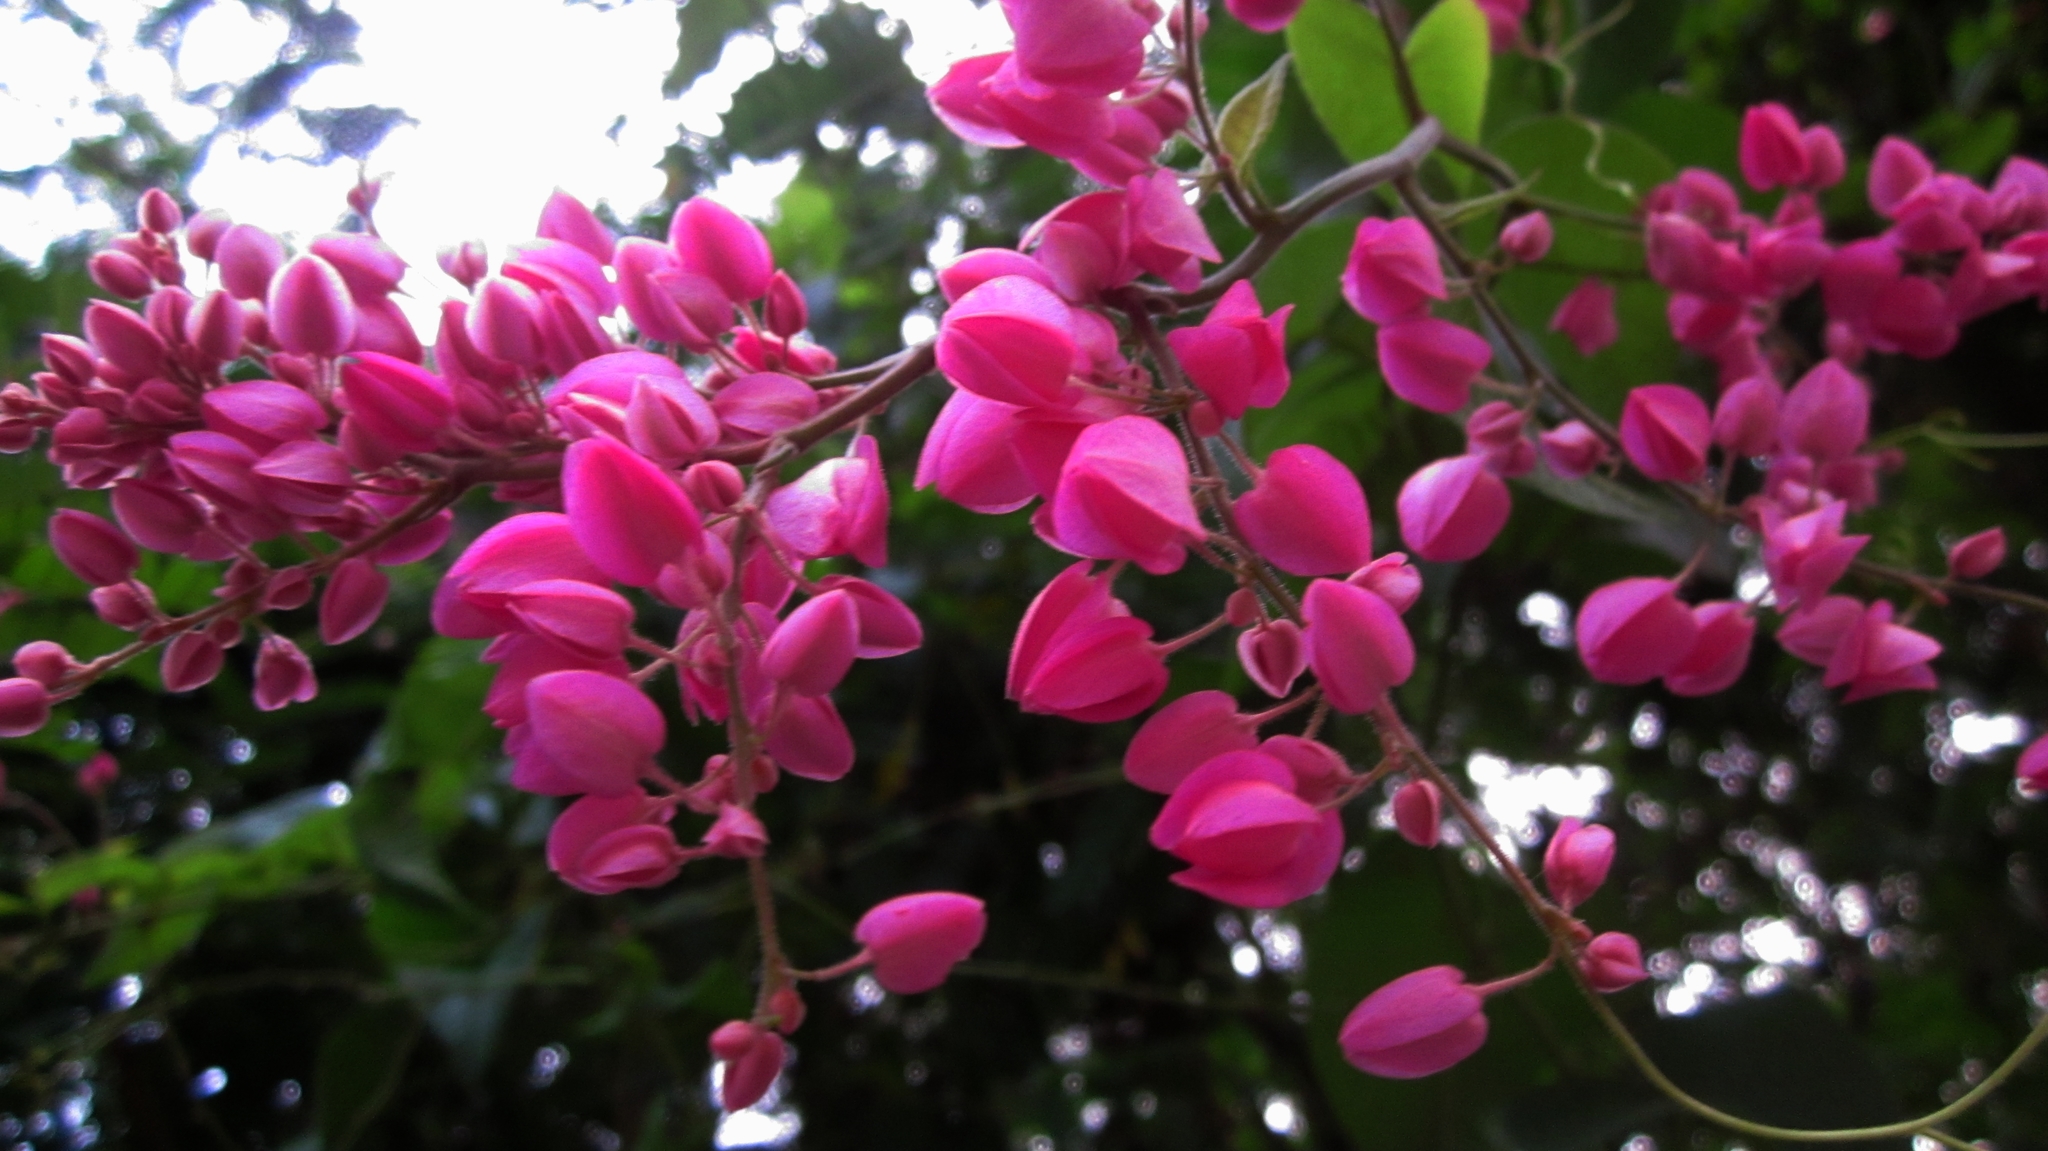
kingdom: Plantae
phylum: Tracheophyta
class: Magnoliopsida
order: Caryophyllales
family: Polygonaceae
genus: Antigonon
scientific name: Antigonon leptopus
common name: Coral vine
